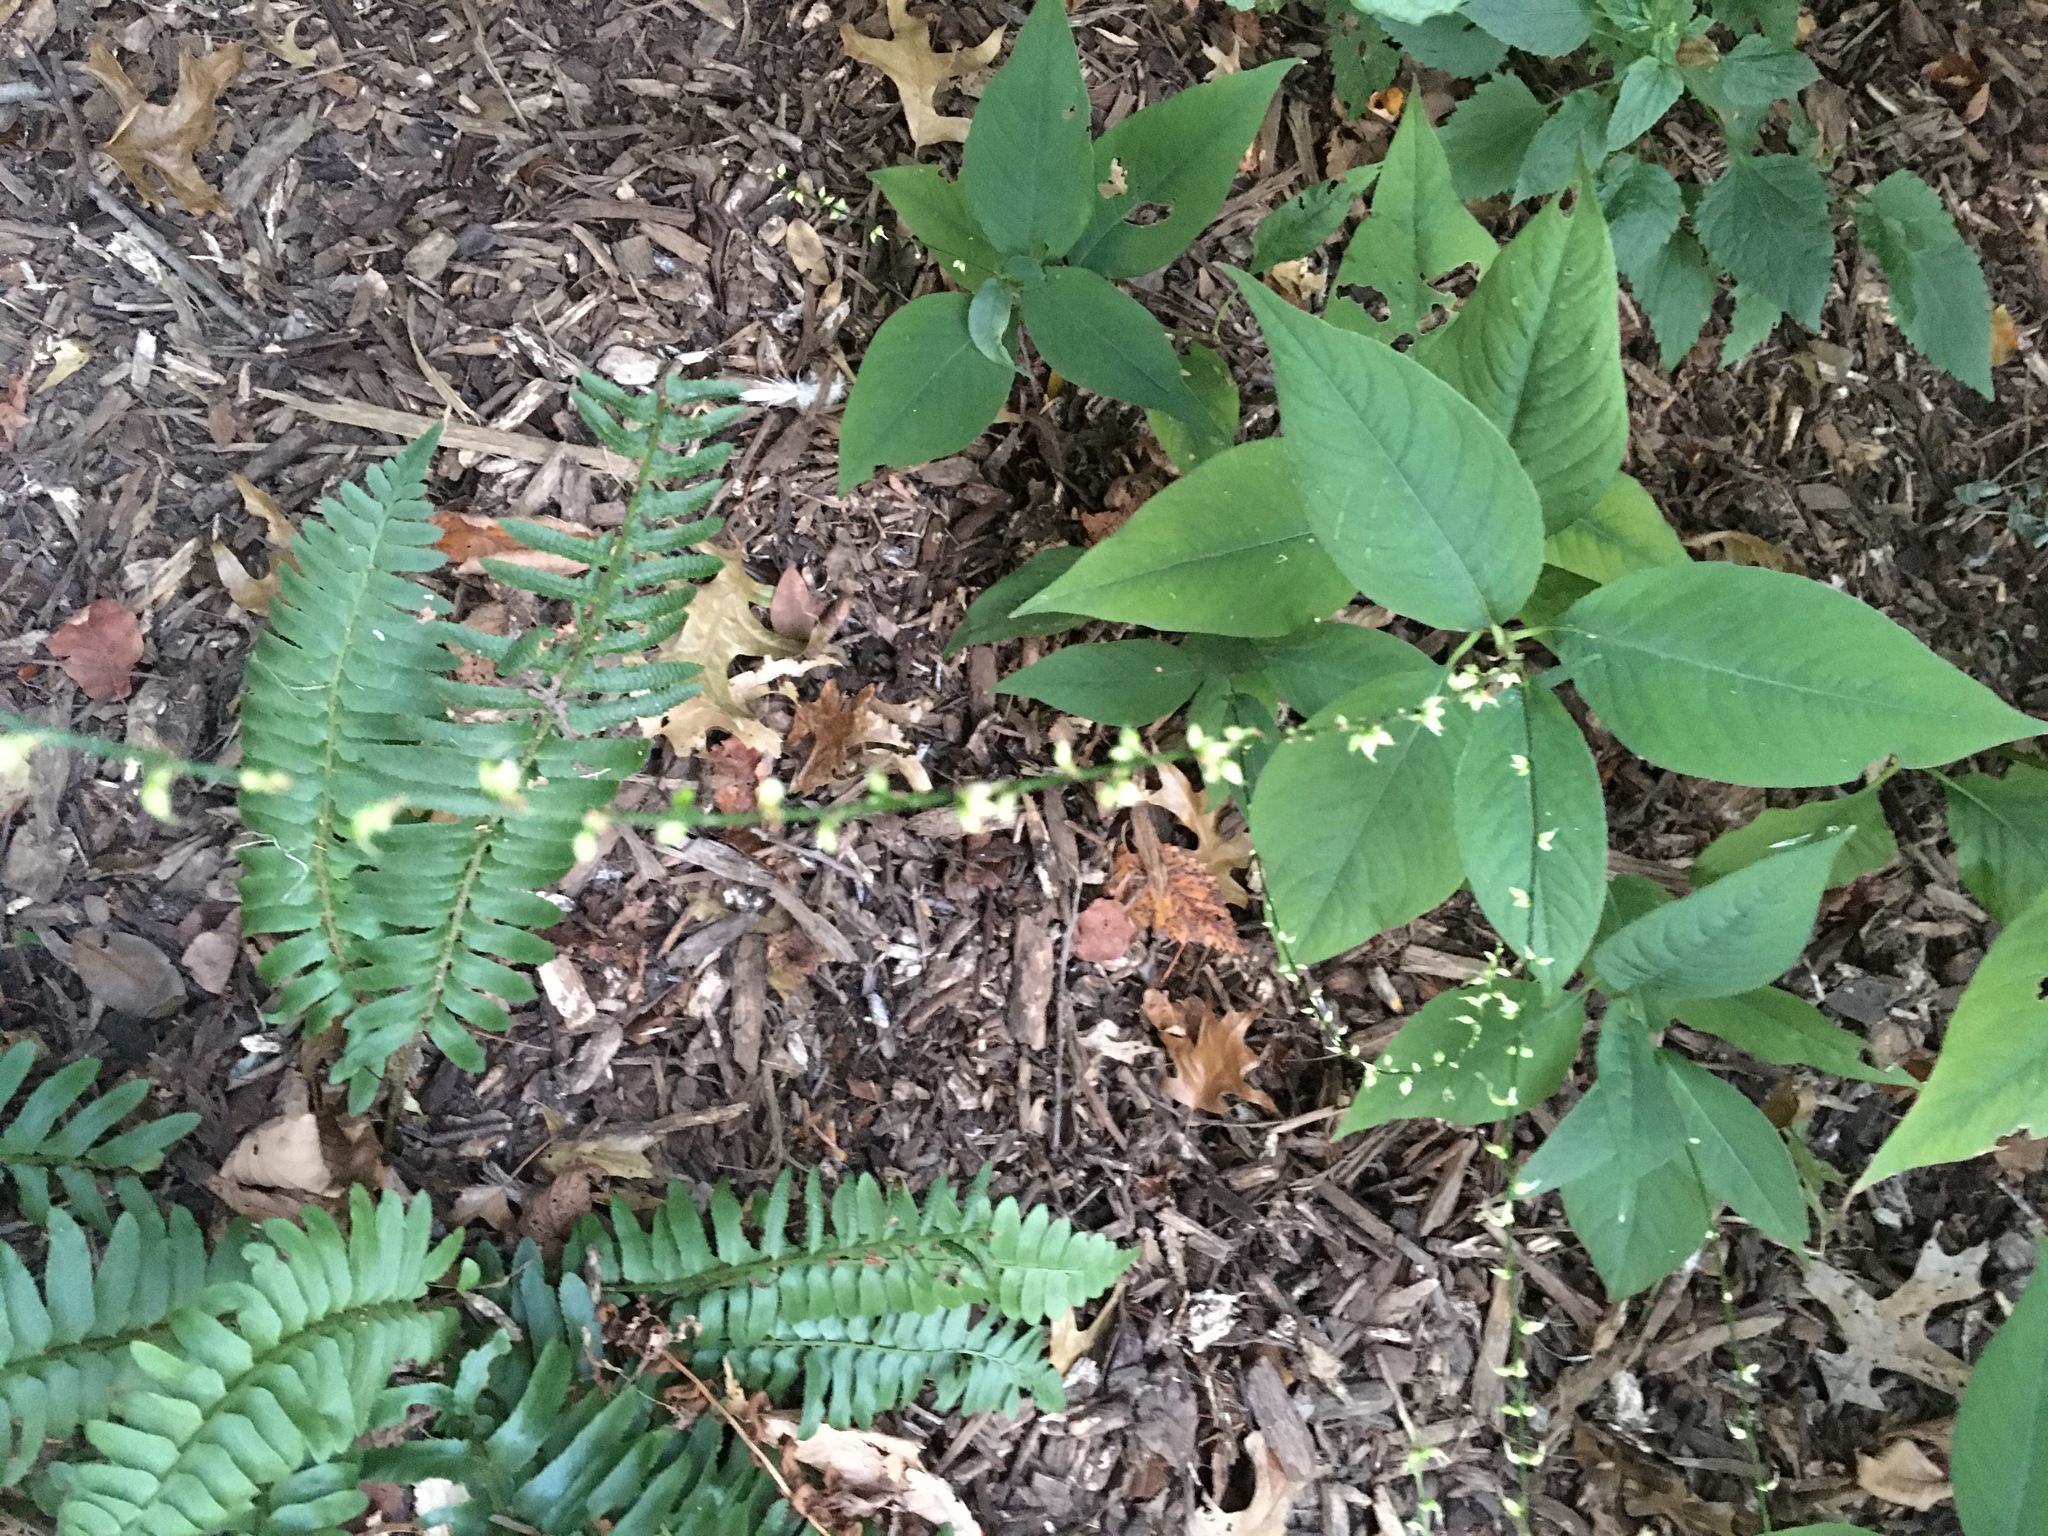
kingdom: Plantae
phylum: Tracheophyta
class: Magnoliopsida
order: Caryophyllales
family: Polygonaceae
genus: Persicaria
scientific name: Persicaria virginiana
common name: Jumpseed
